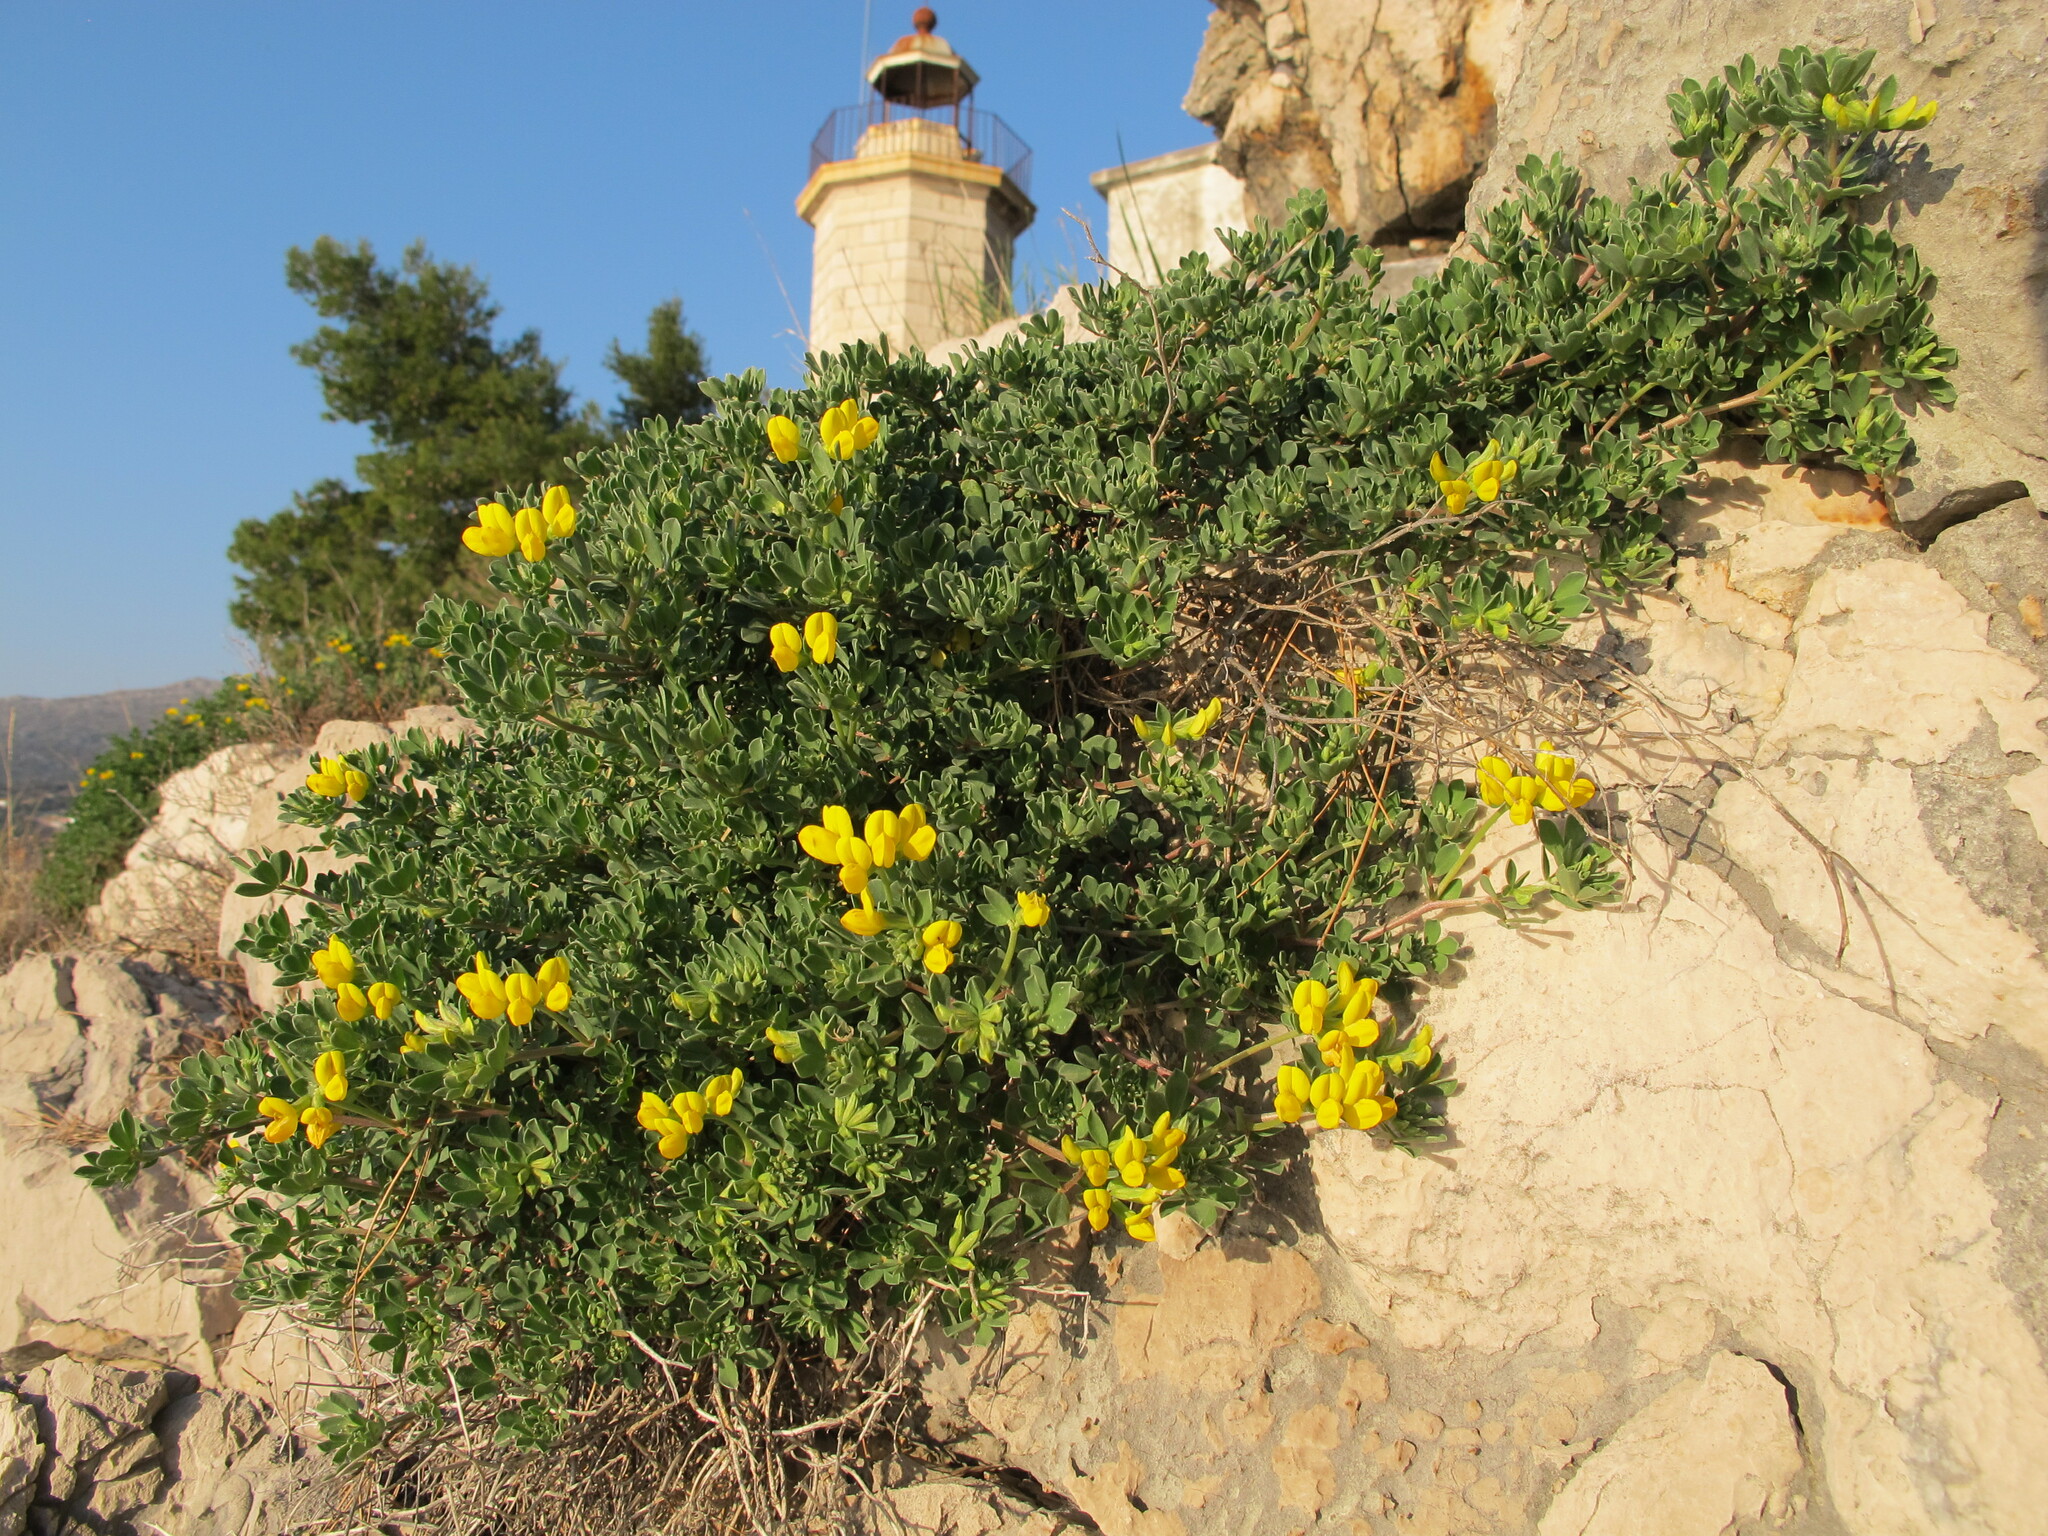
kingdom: Plantae
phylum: Tracheophyta
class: Magnoliopsida
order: Fabales
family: Fabaceae
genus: Lotus
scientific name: Lotus cytisoides
